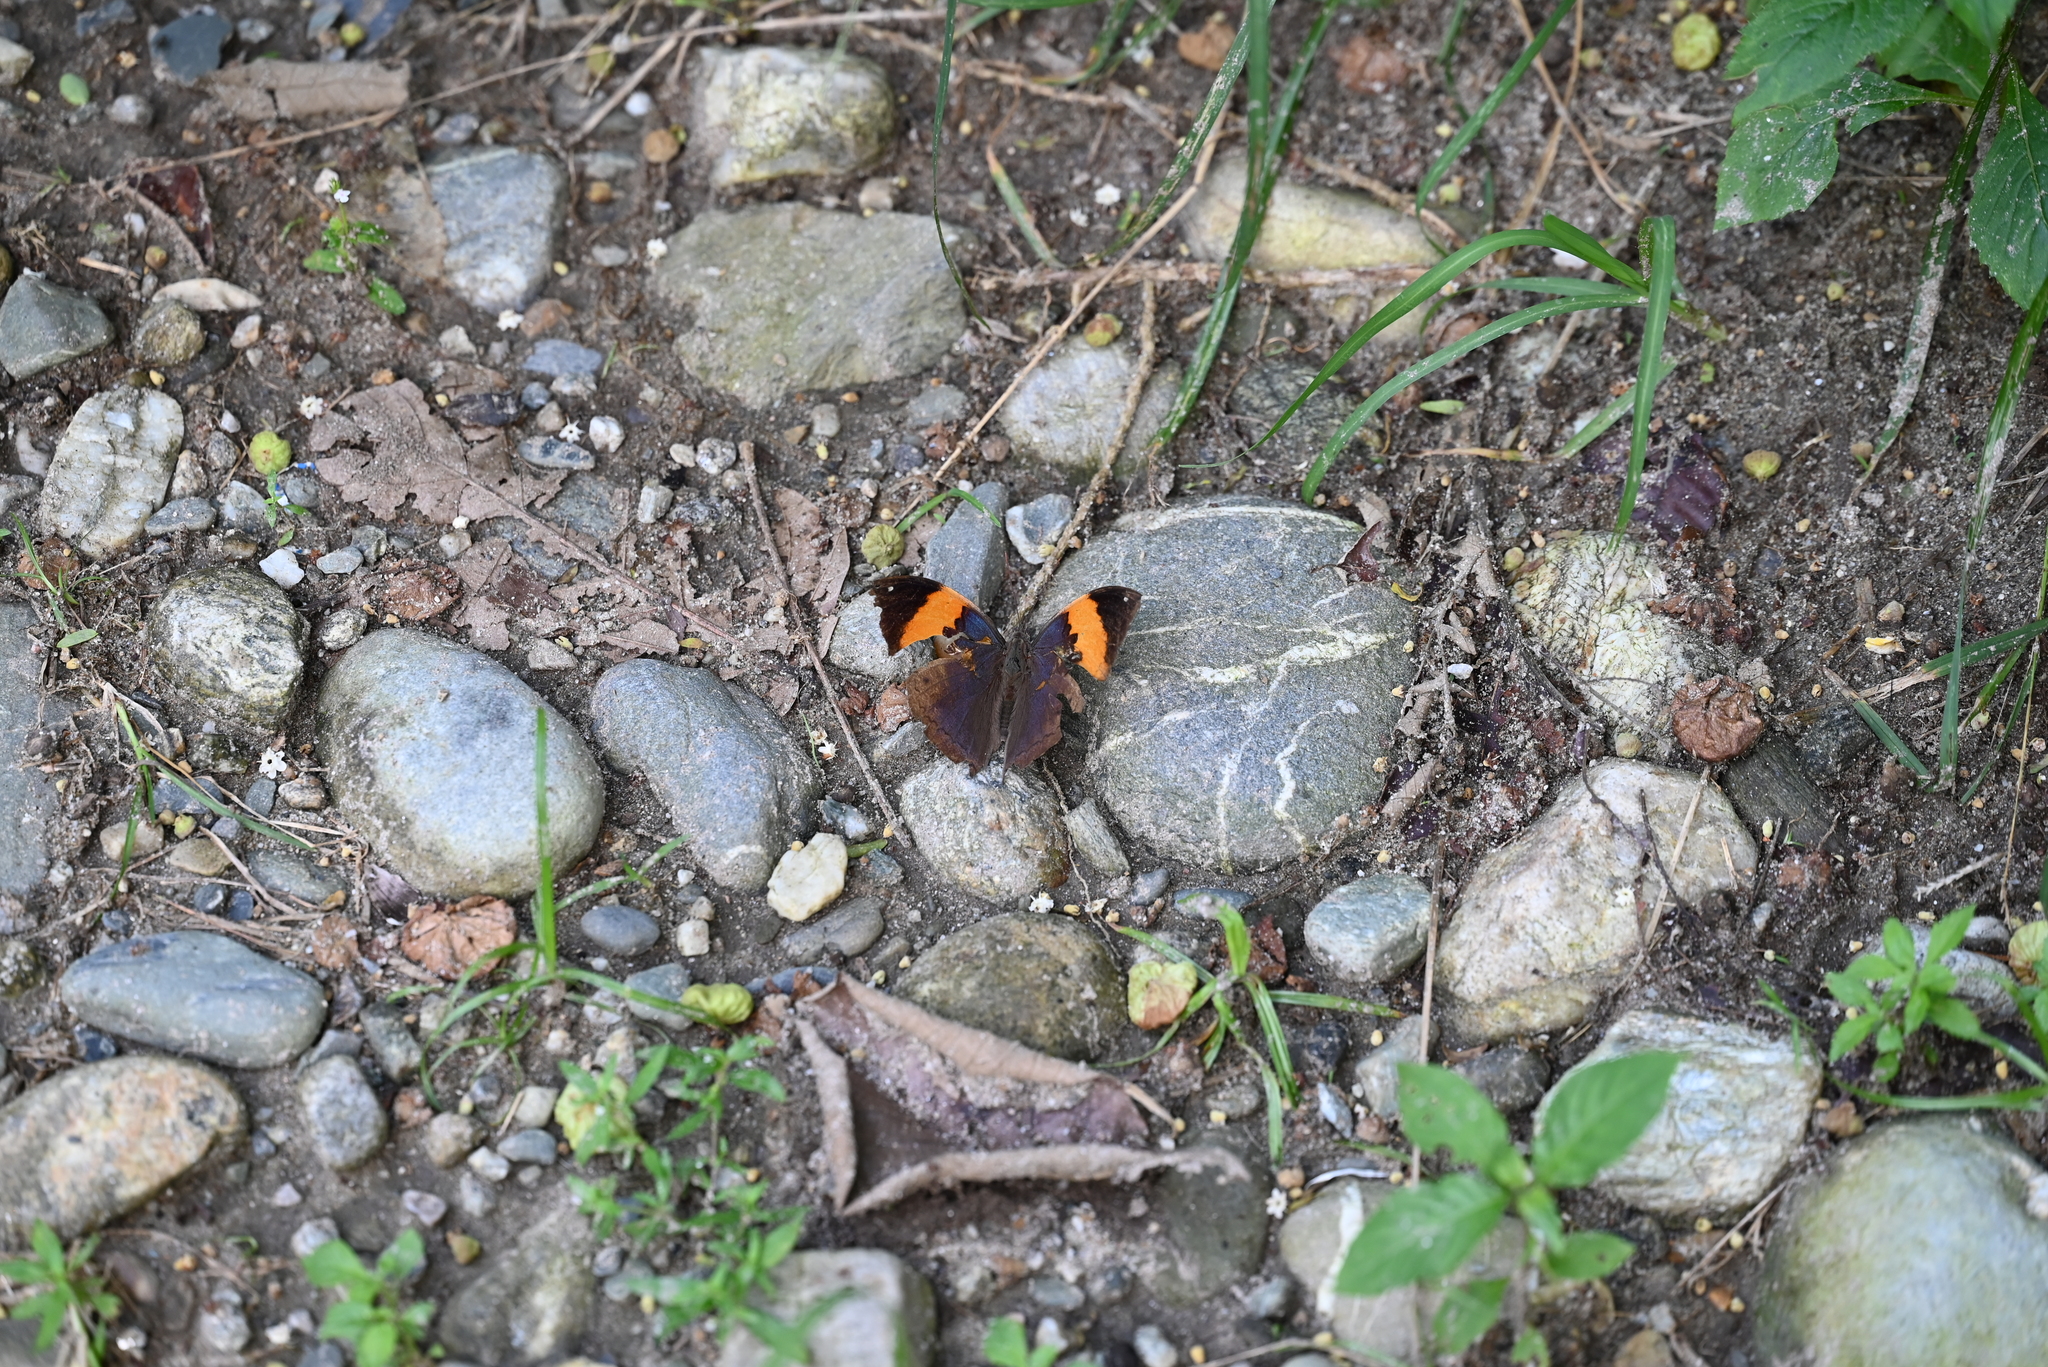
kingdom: Animalia
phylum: Arthropoda
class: Insecta
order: Lepidoptera
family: Nymphalidae
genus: Kallima
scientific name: Kallima inachus
